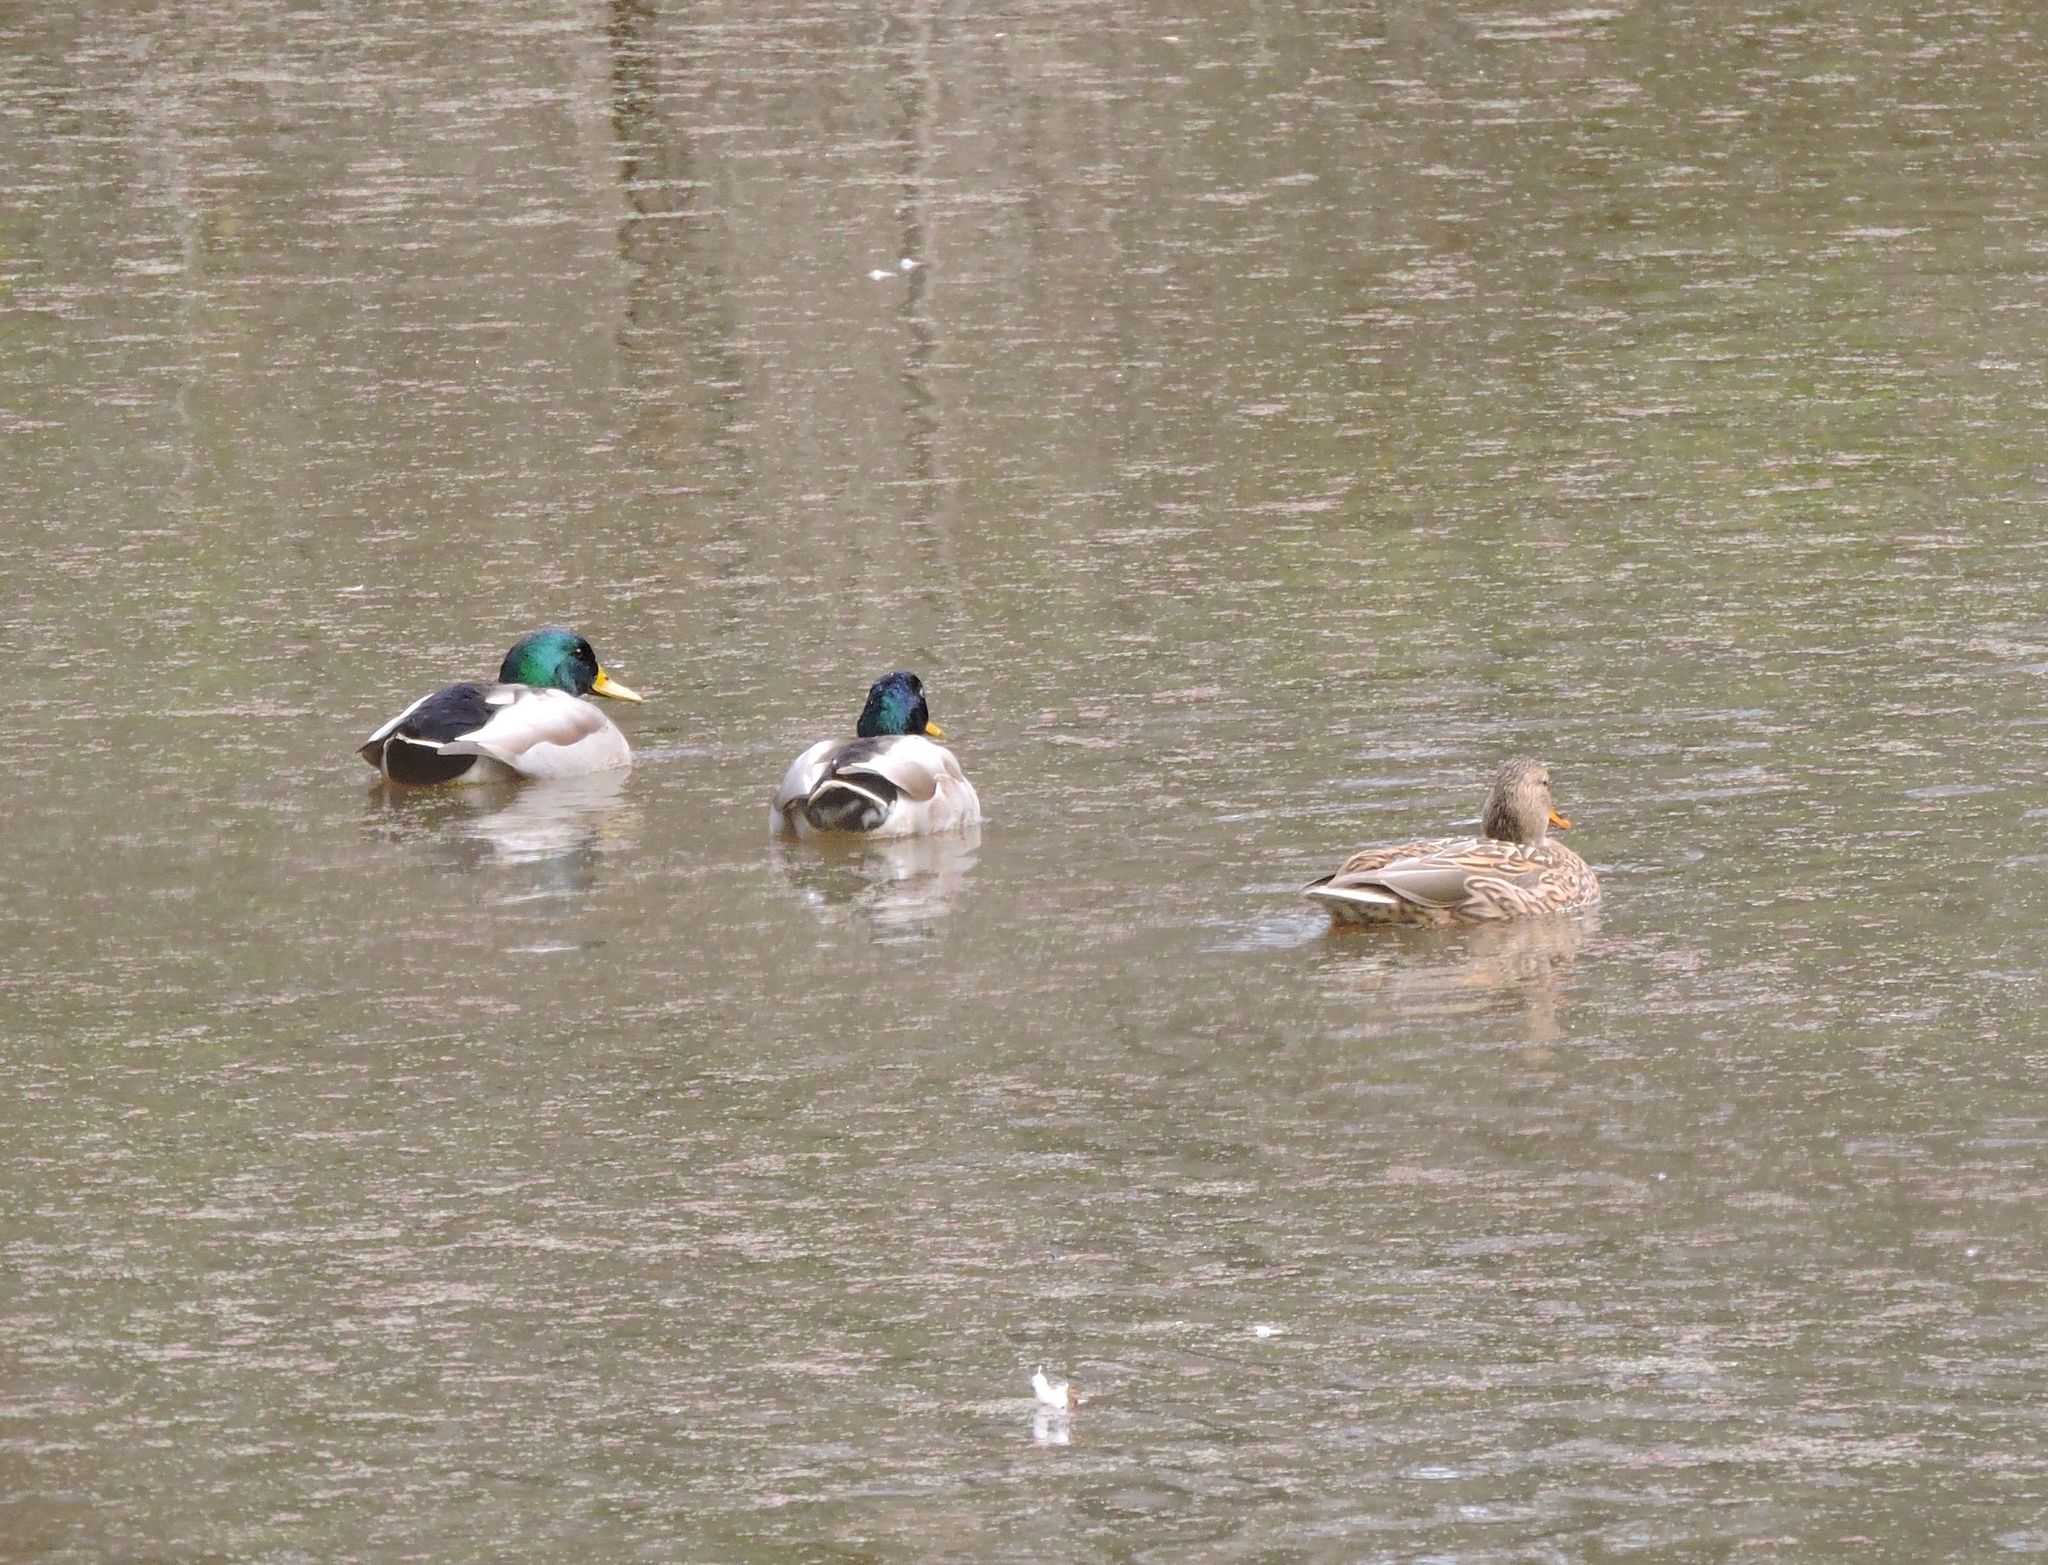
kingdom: Animalia
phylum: Chordata
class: Aves
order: Anseriformes
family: Anatidae
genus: Anas
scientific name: Anas platyrhynchos
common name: Mallard
